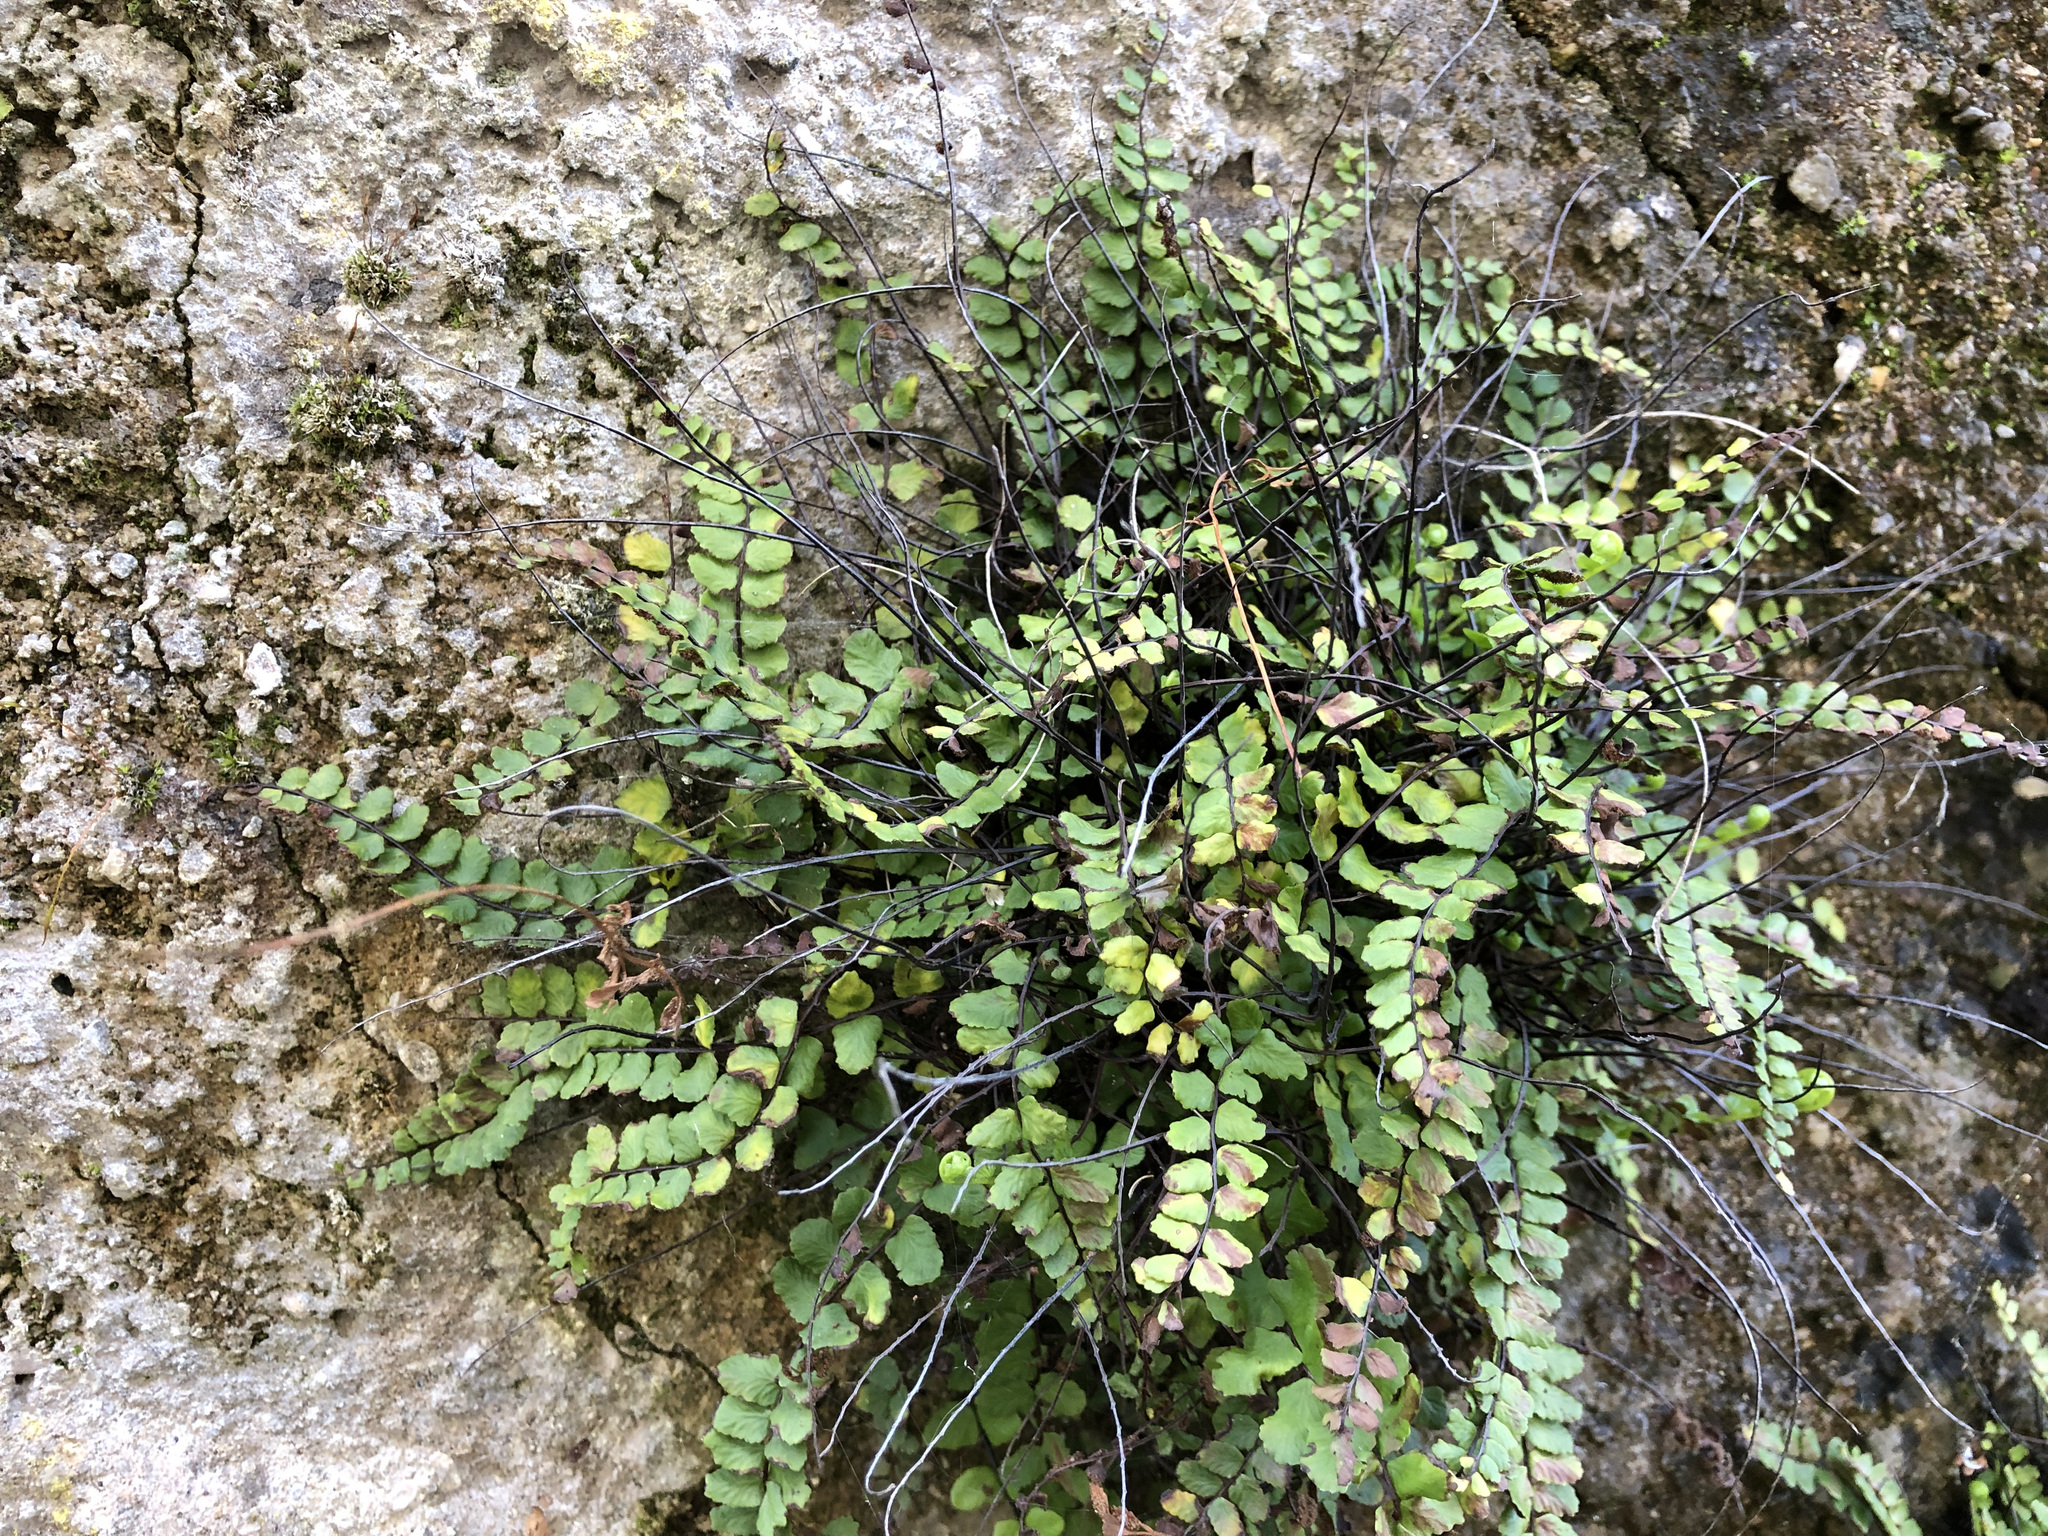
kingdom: Plantae
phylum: Tracheophyta
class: Polypodiopsida
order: Polypodiales
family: Aspleniaceae
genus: Asplenium
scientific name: Asplenium trichomanes
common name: Maidenhair spleenwort
